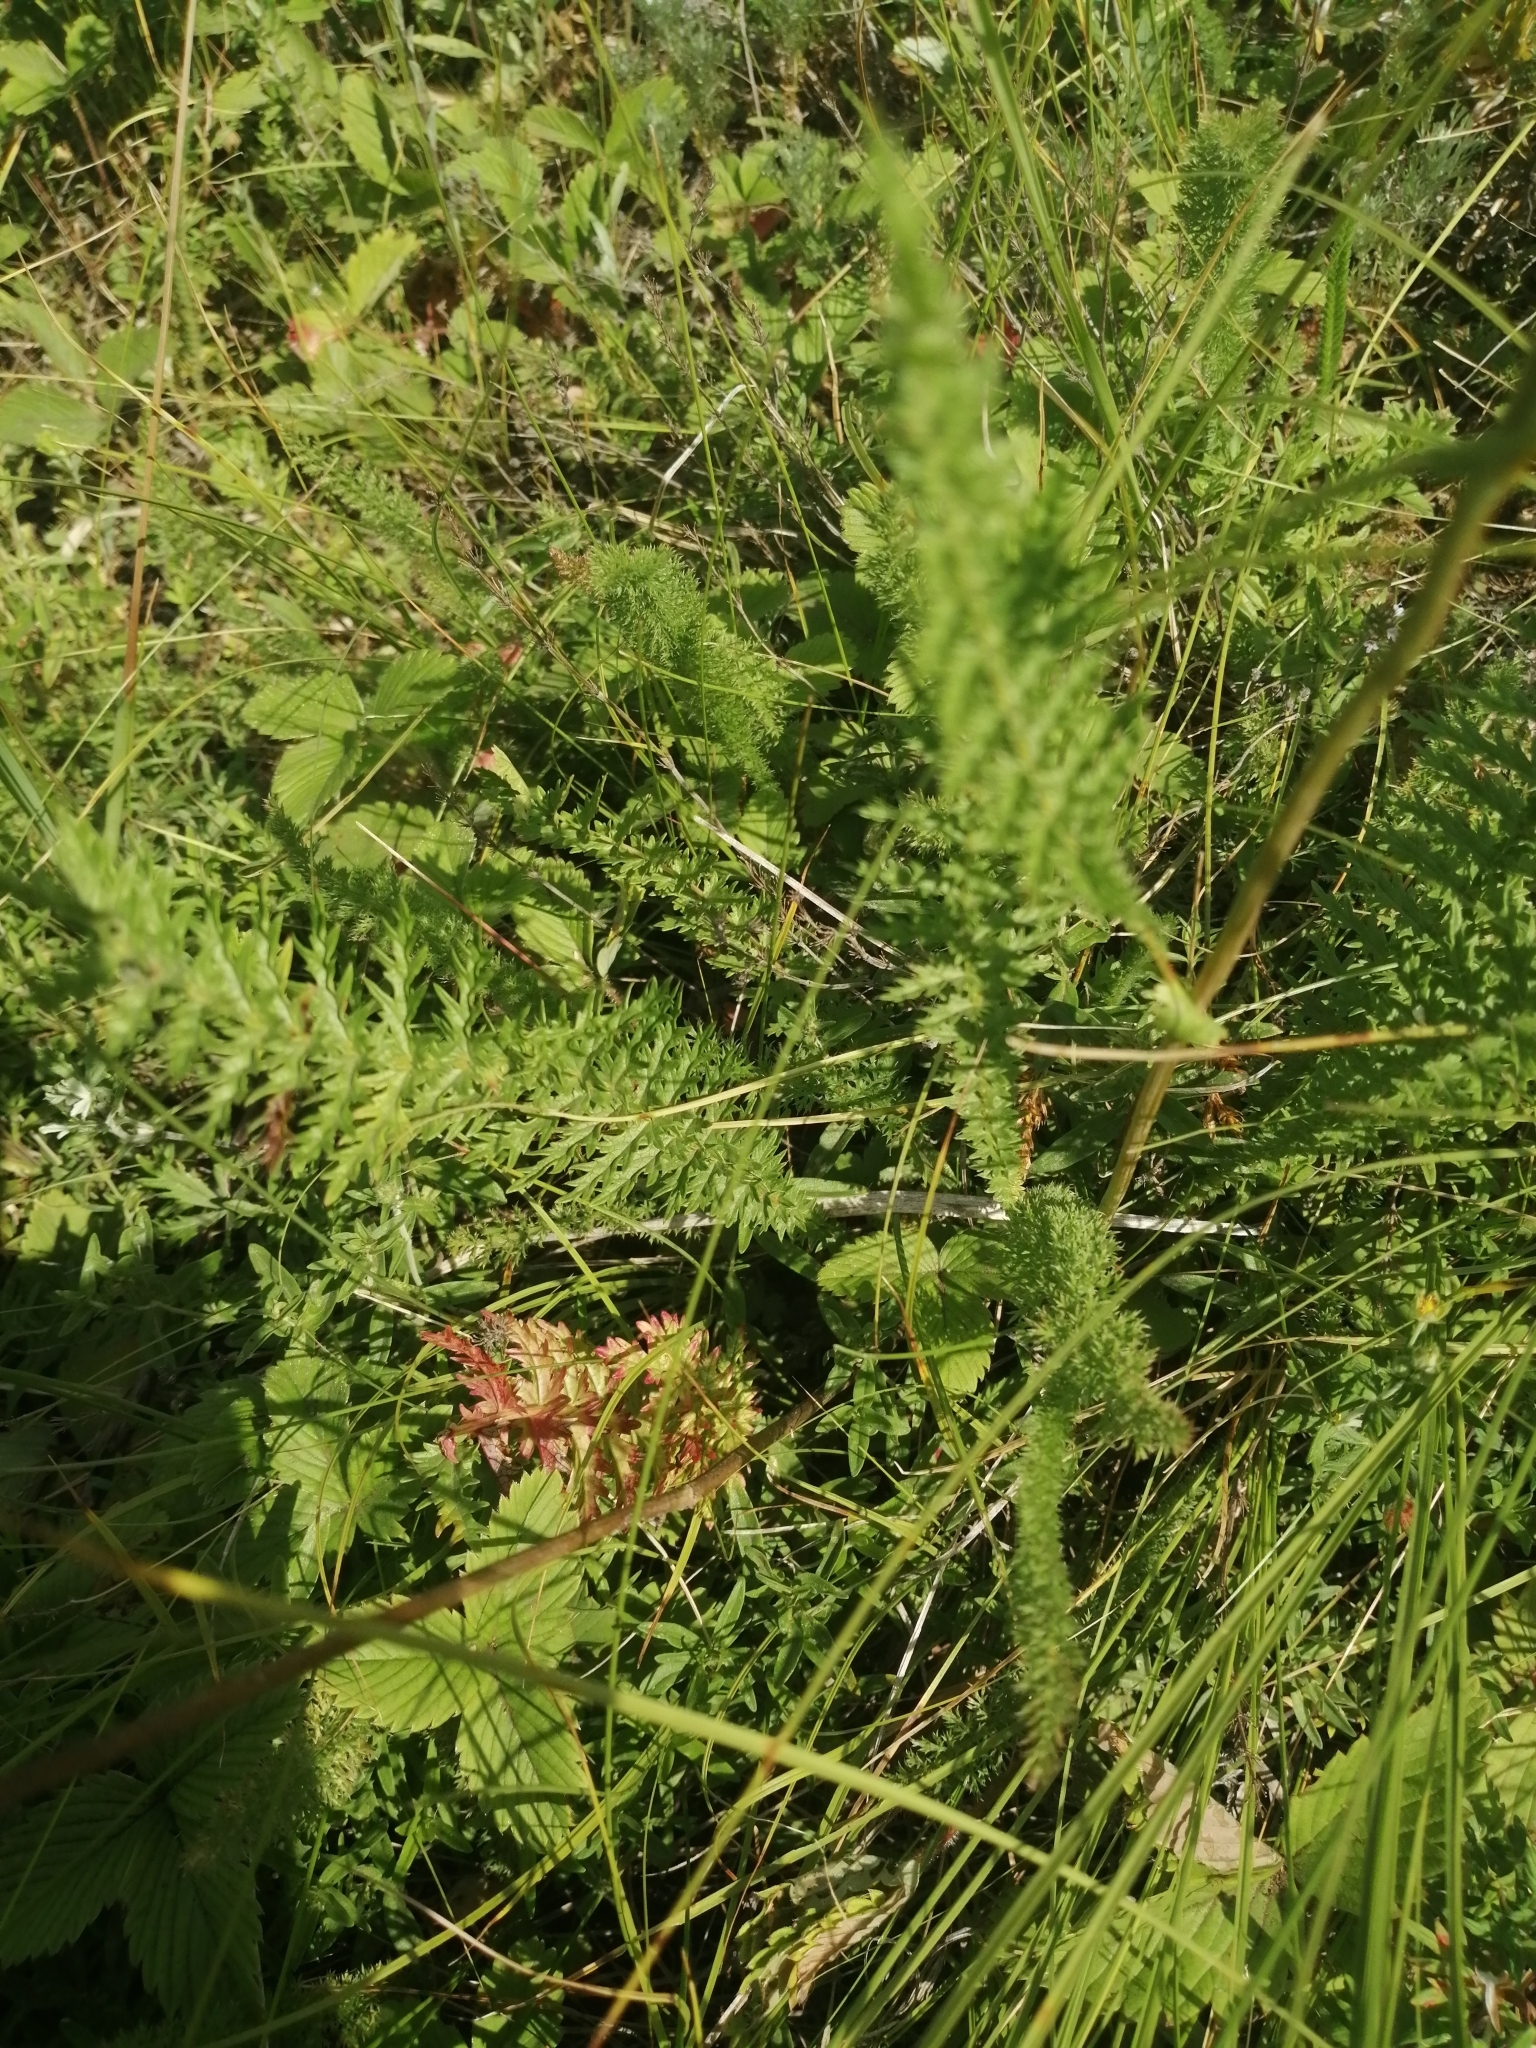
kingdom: Plantae
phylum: Tracheophyta
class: Magnoliopsida
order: Rosales
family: Rosaceae
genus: Filipendula
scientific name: Filipendula vulgaris
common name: Dropwort
